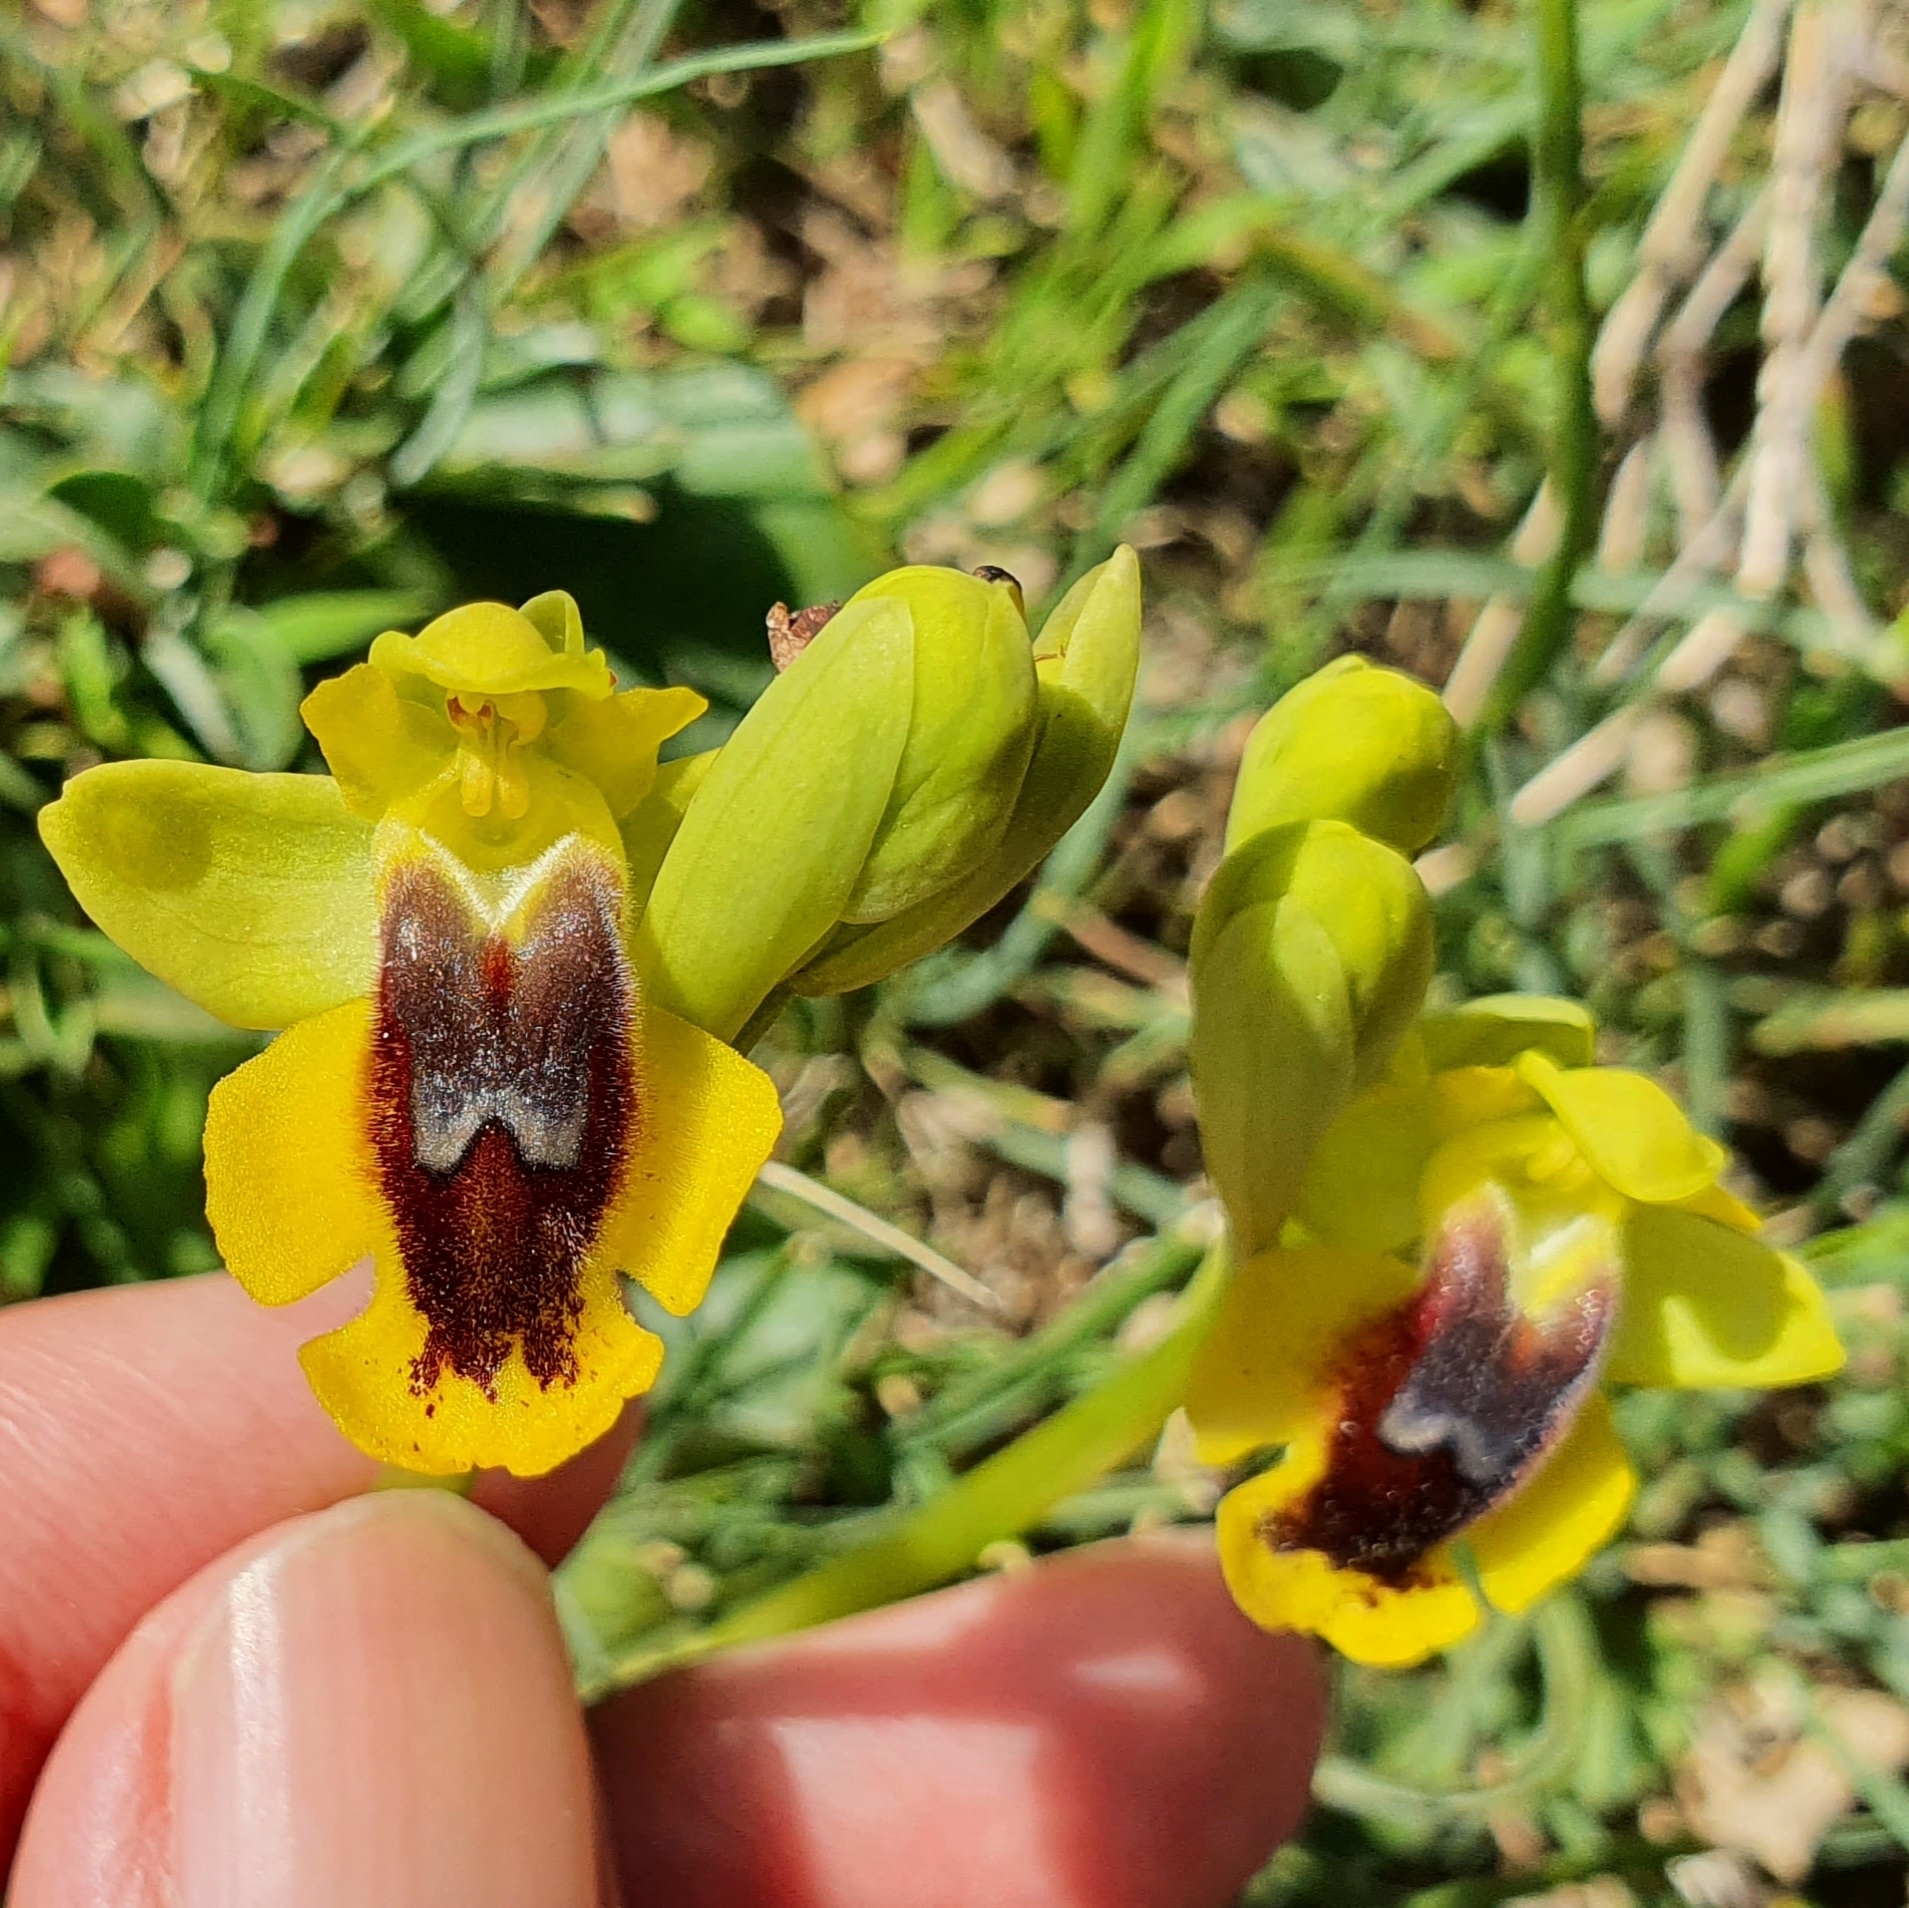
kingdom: Plantae
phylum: Tracheophyta
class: Liliopsida
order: Asparagales
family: Orchidaceae
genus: Ophrys
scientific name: Ophrys lutea
